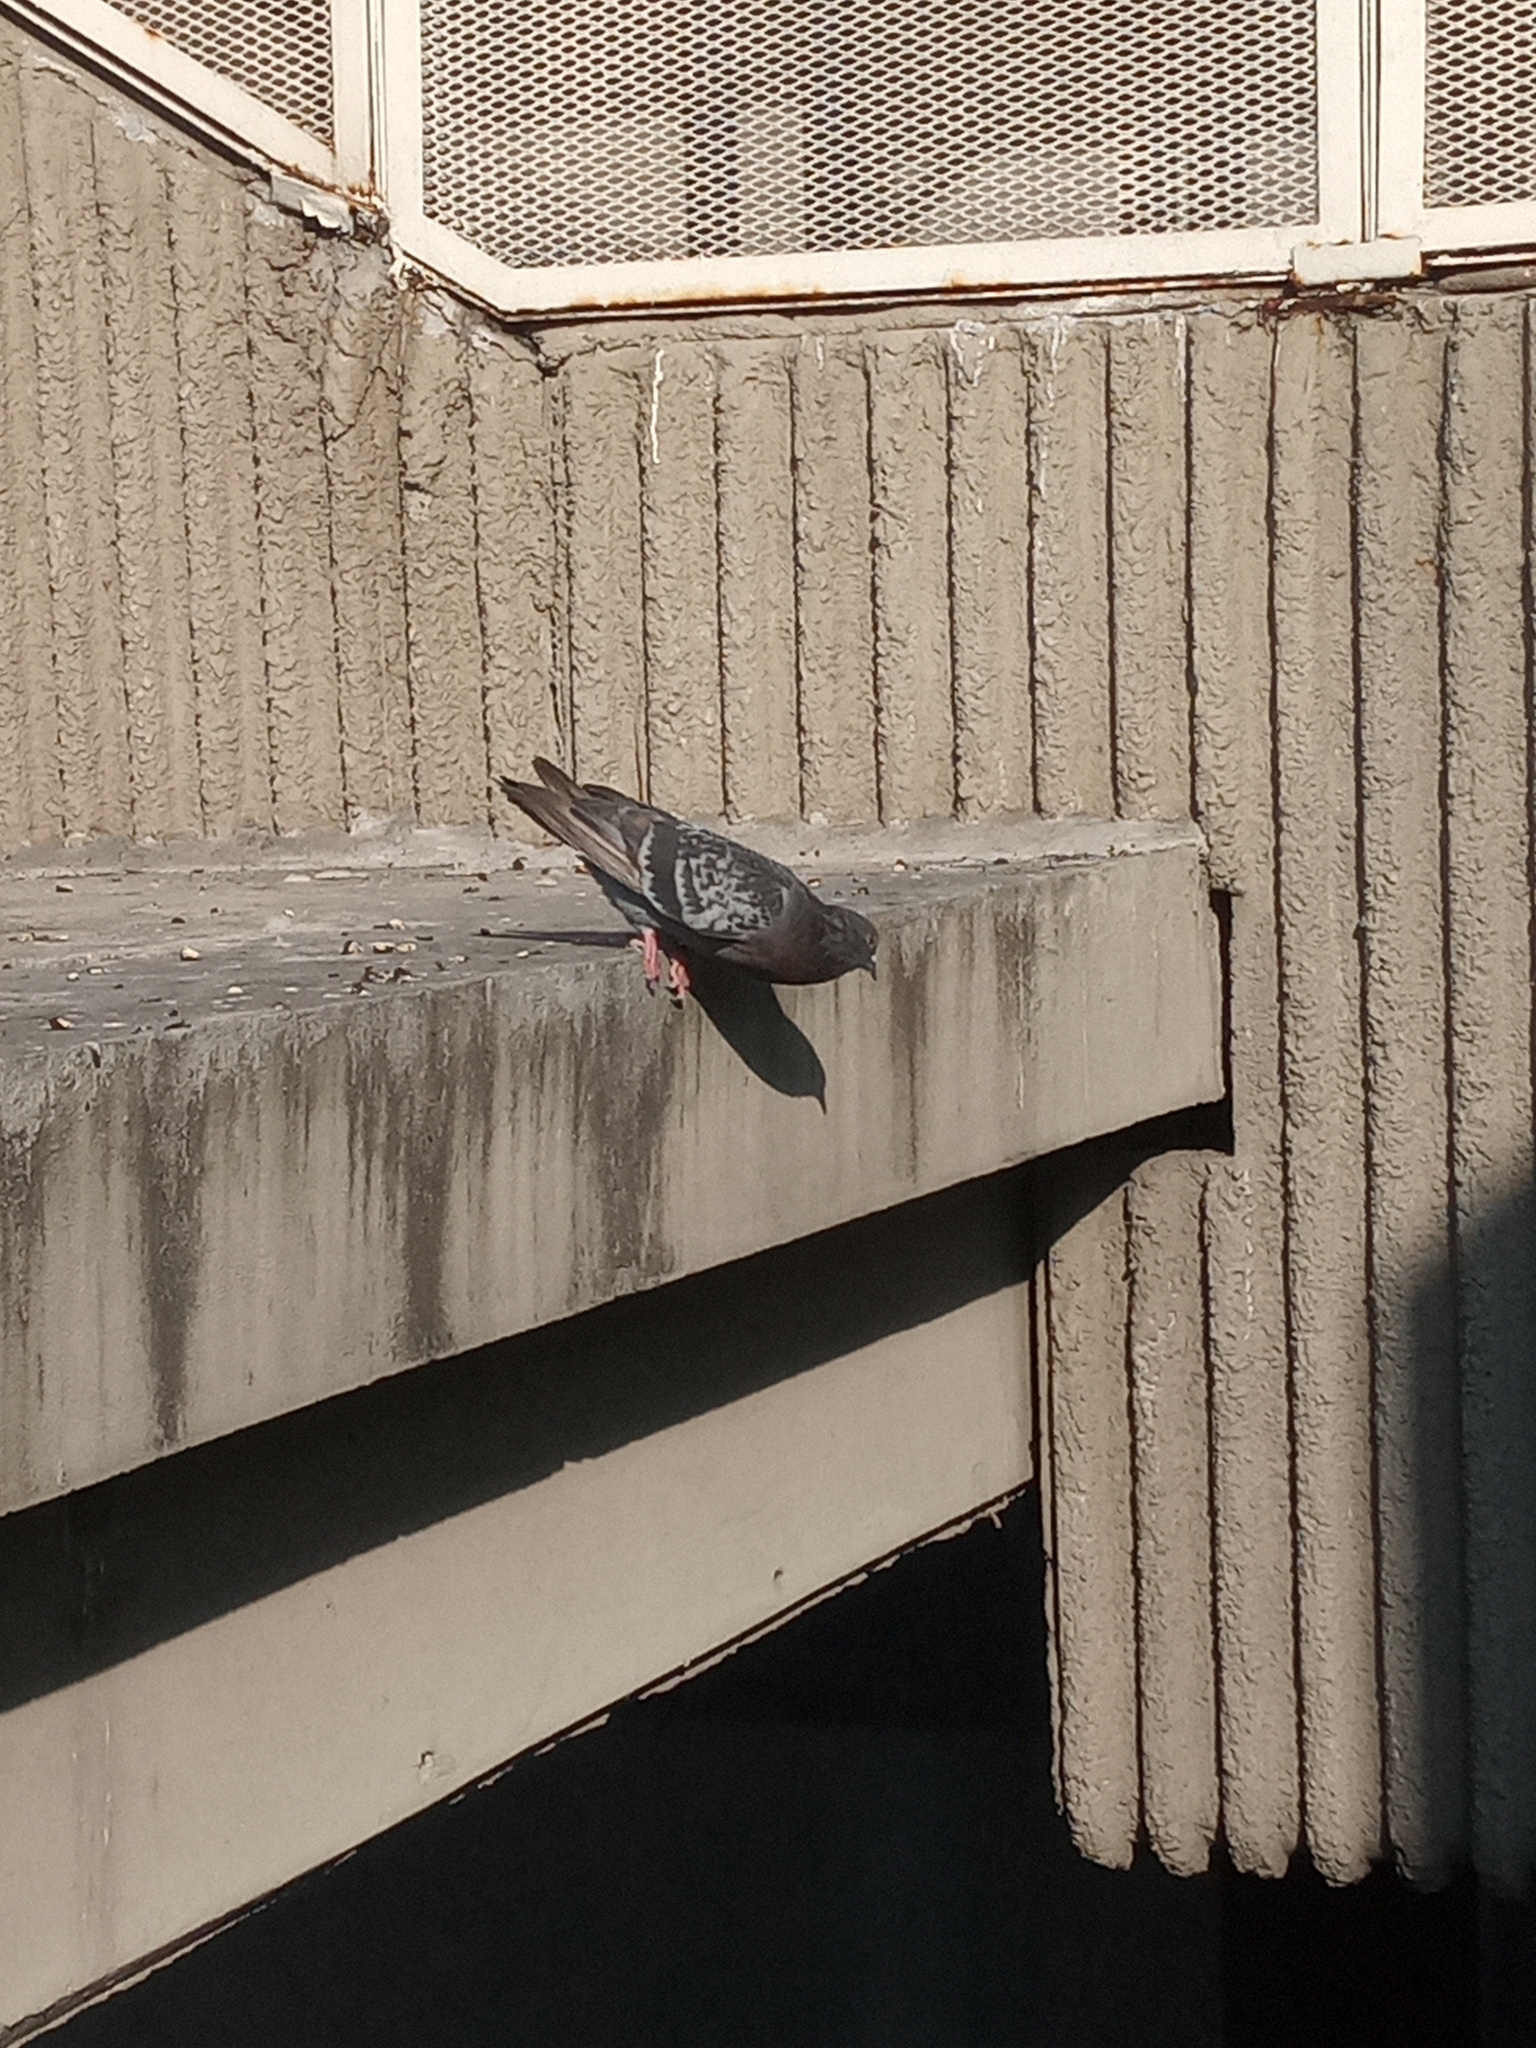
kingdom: Animalia
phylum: Chordata
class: Aves
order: Columbiformes
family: Columbidae
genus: Columba
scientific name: Columba livia
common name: Rock pigeon
